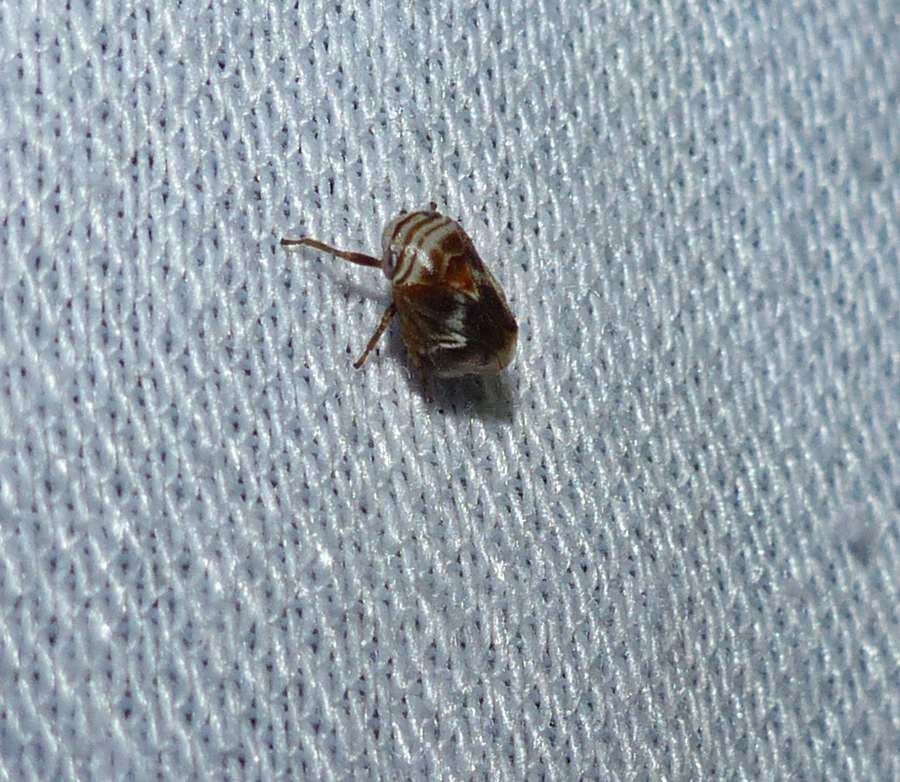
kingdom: Animalia
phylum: Arthropoda
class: Insecta
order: Hemiptera
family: Clastopteridae
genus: Clastoptera
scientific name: Clastoptera obtusa
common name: Alder spittlebug
